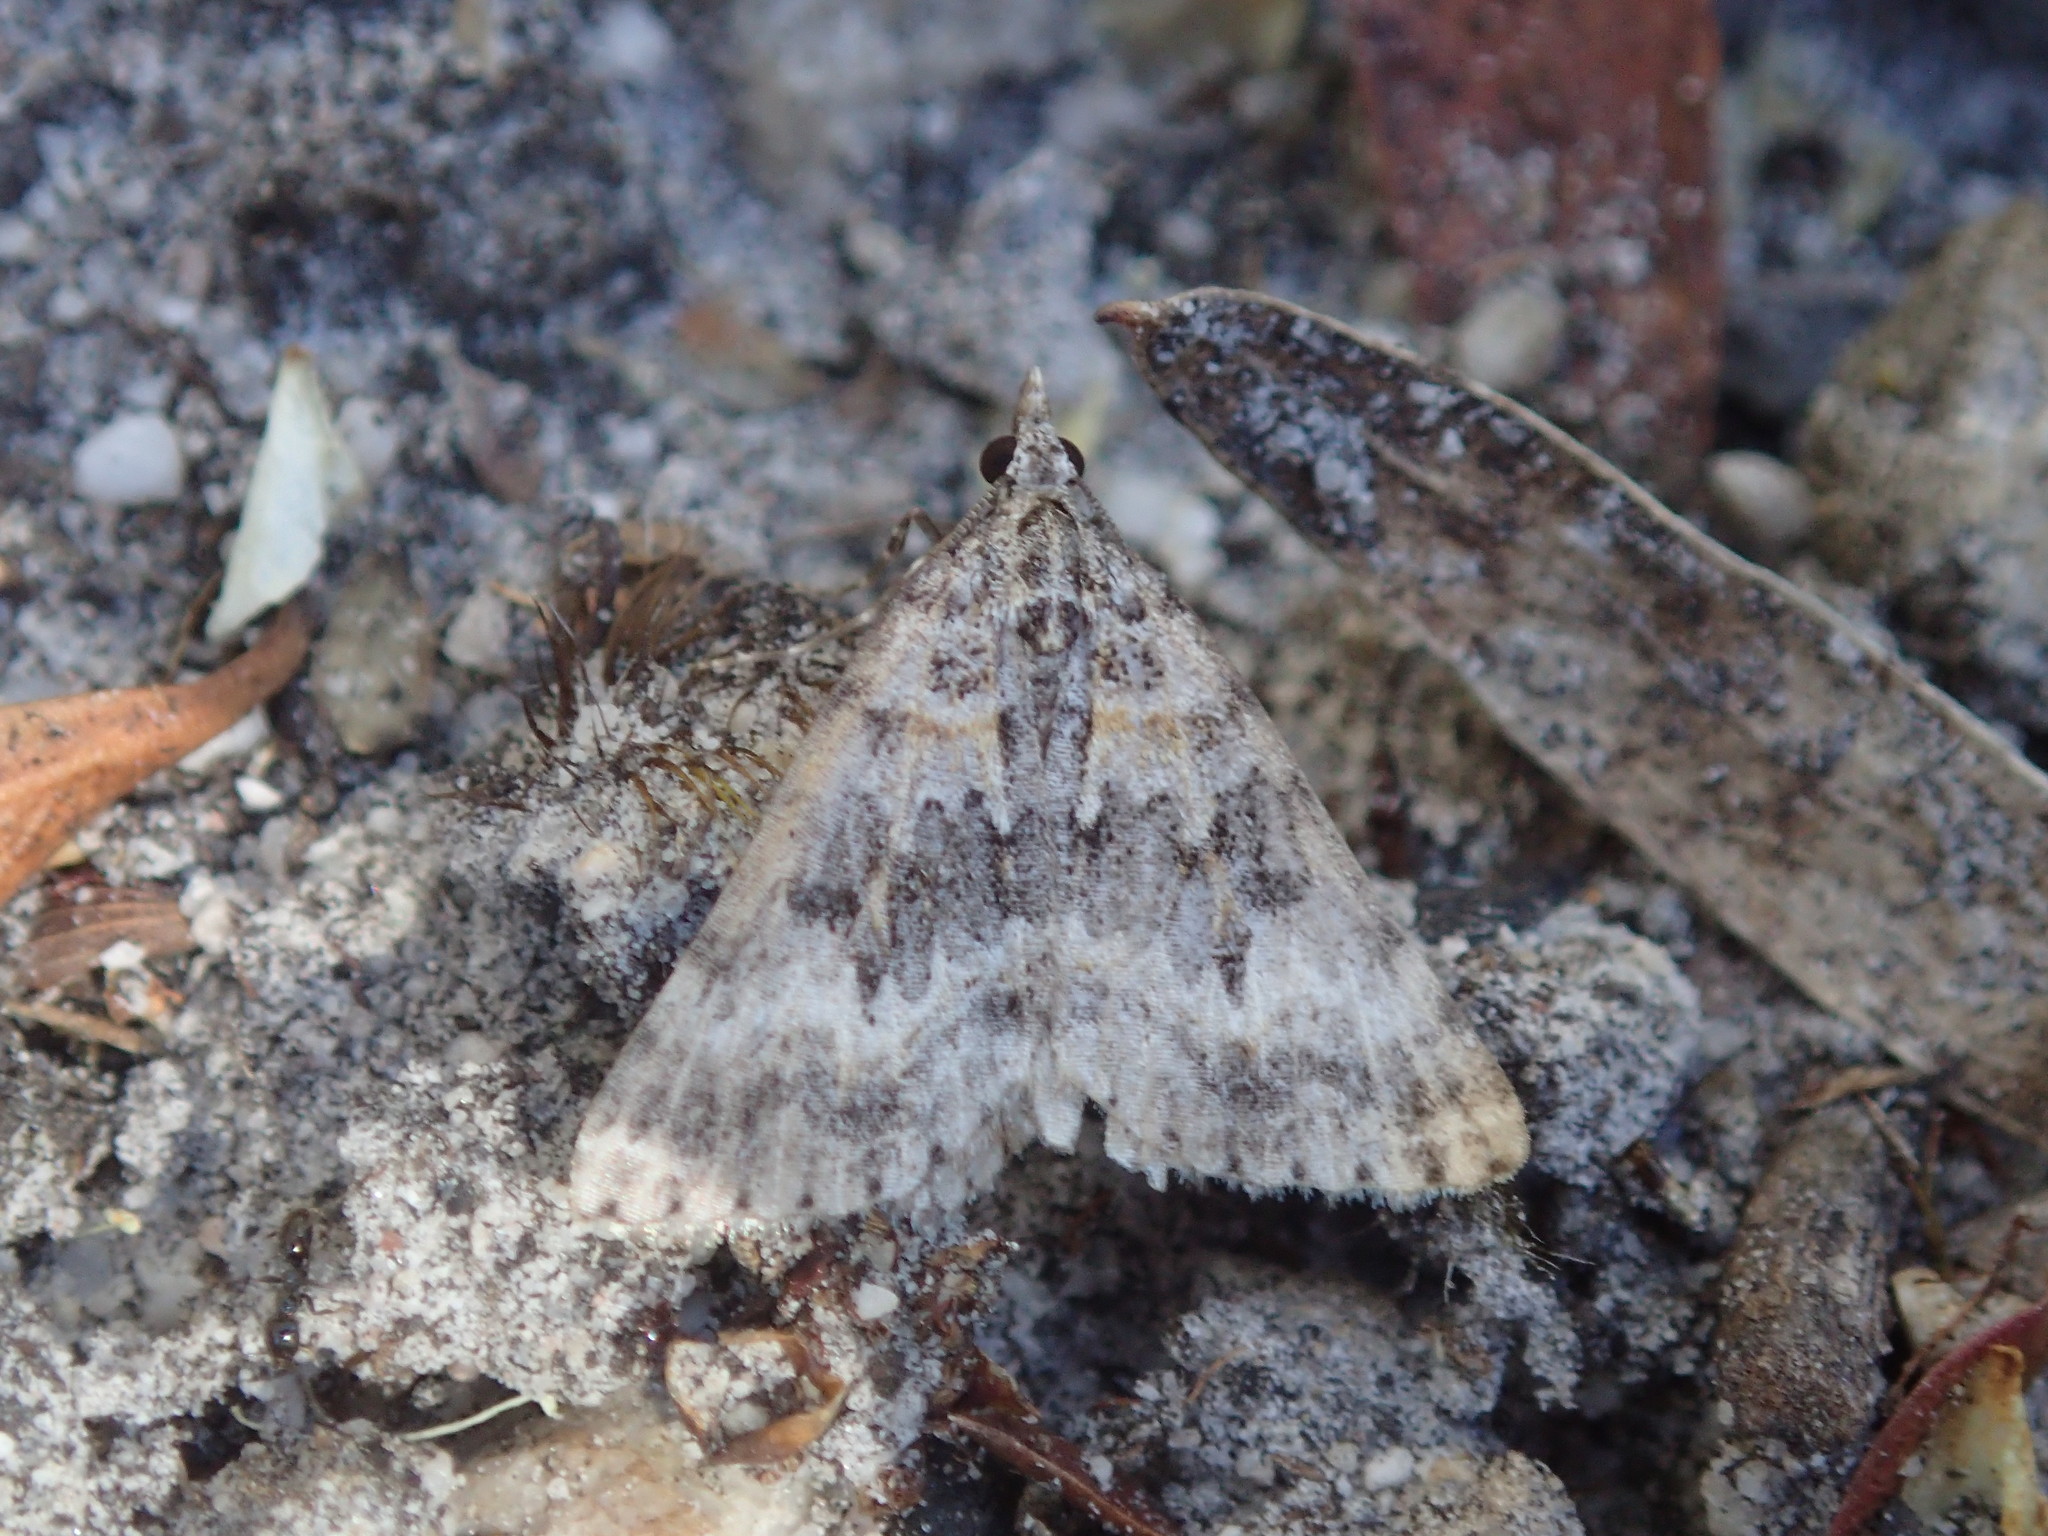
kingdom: Animalia
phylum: Arthropoda
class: Insecta
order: Lepidoptera
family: Geometridae
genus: Dichromodes
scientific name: Dichromodes longidens
